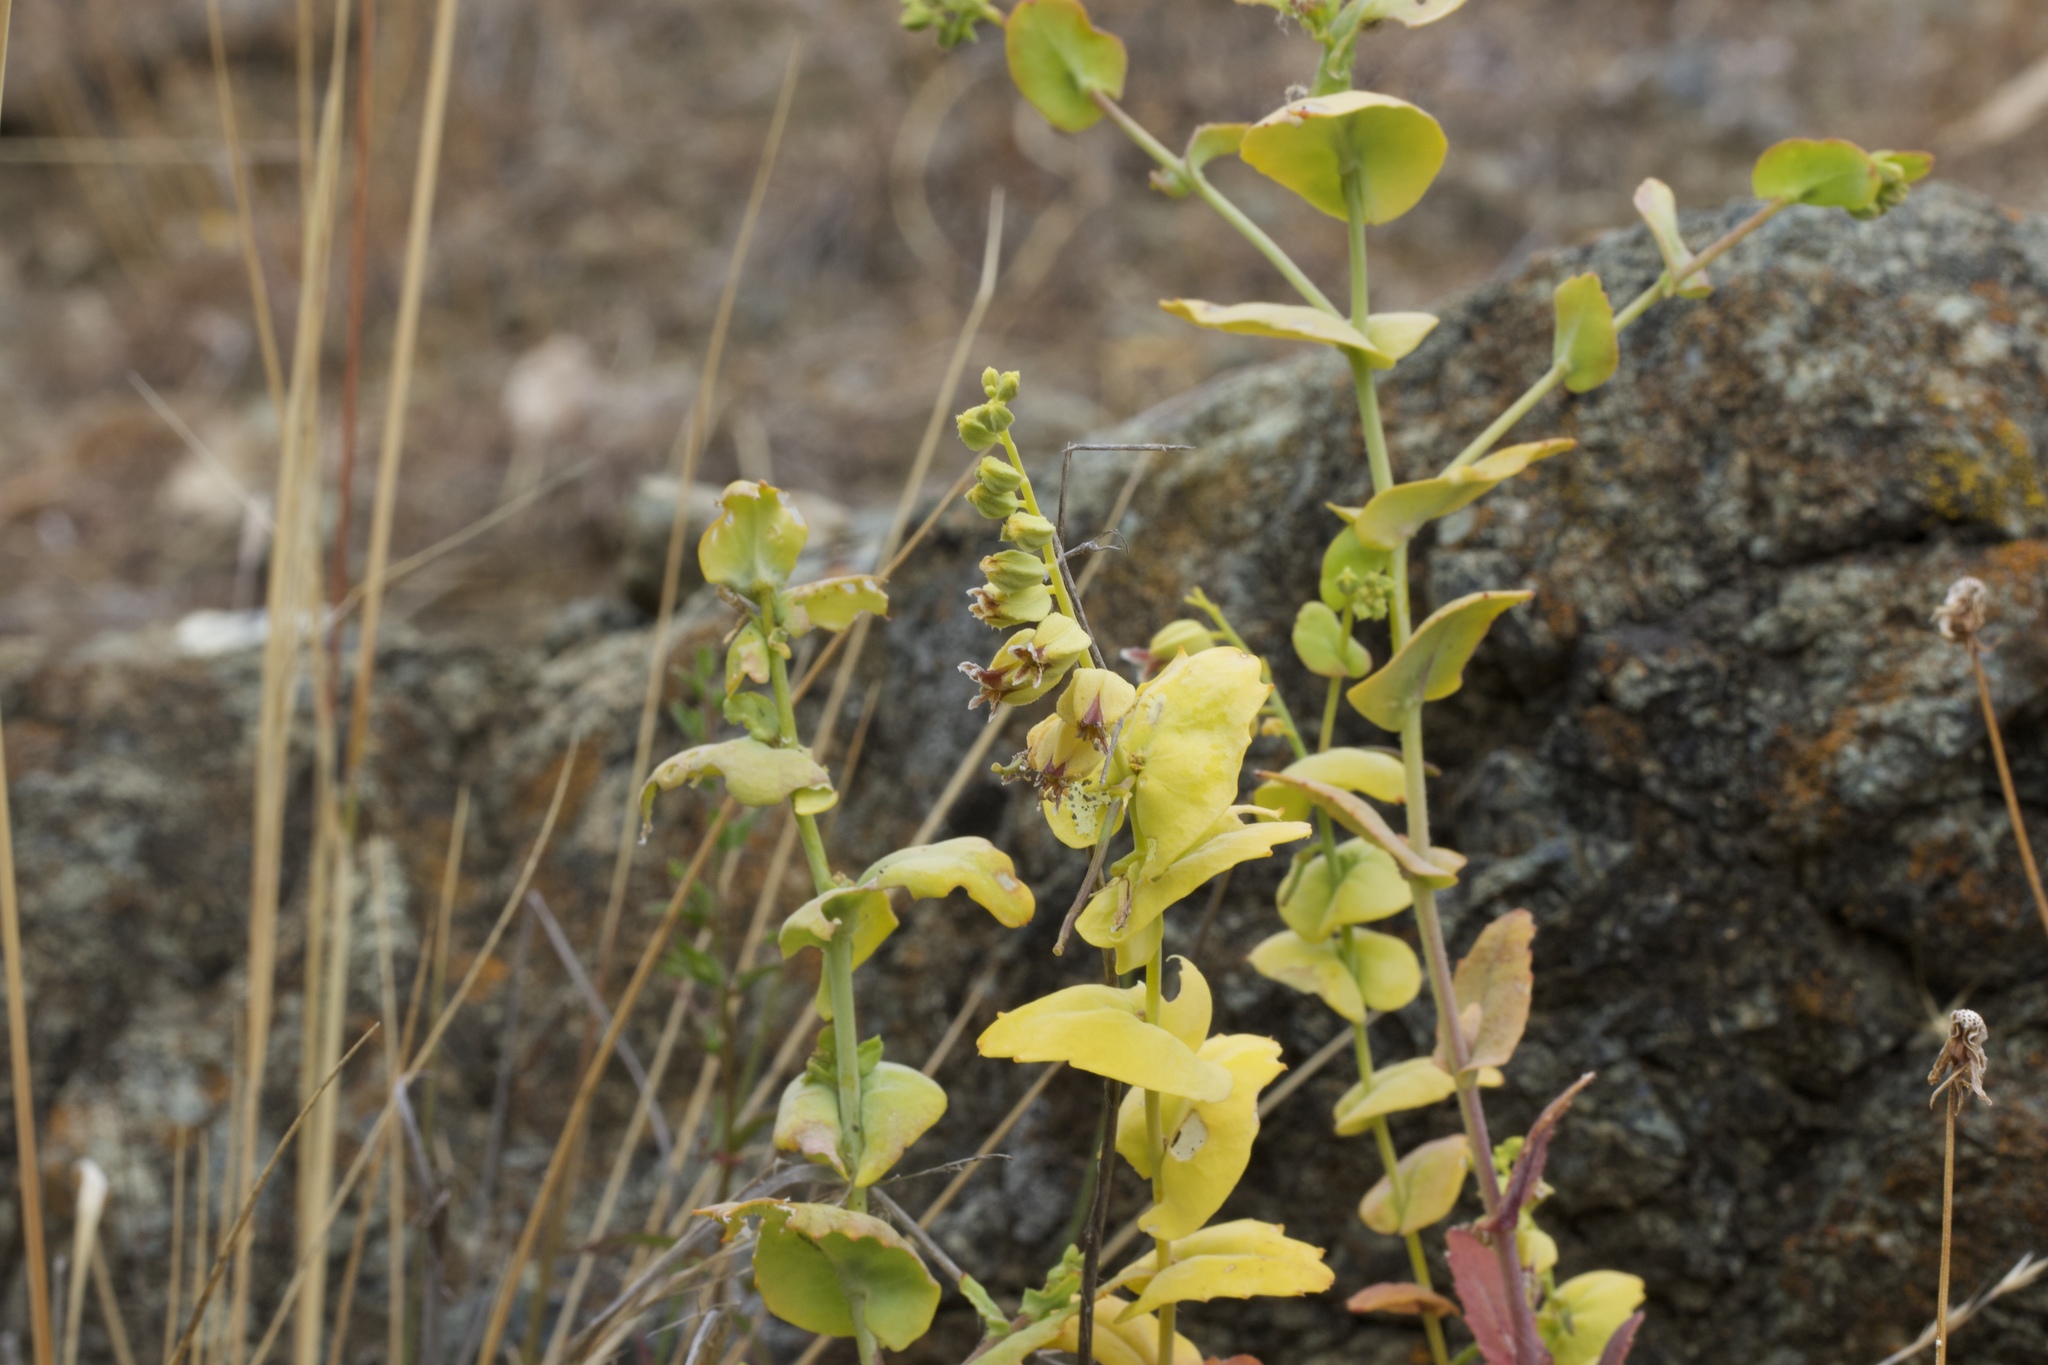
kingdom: Plantae
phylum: Tracheophyta
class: Magnoliopsida
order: Brassicales
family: Brassicaceae
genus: Streptanthus
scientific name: Streptanthus anomalus
